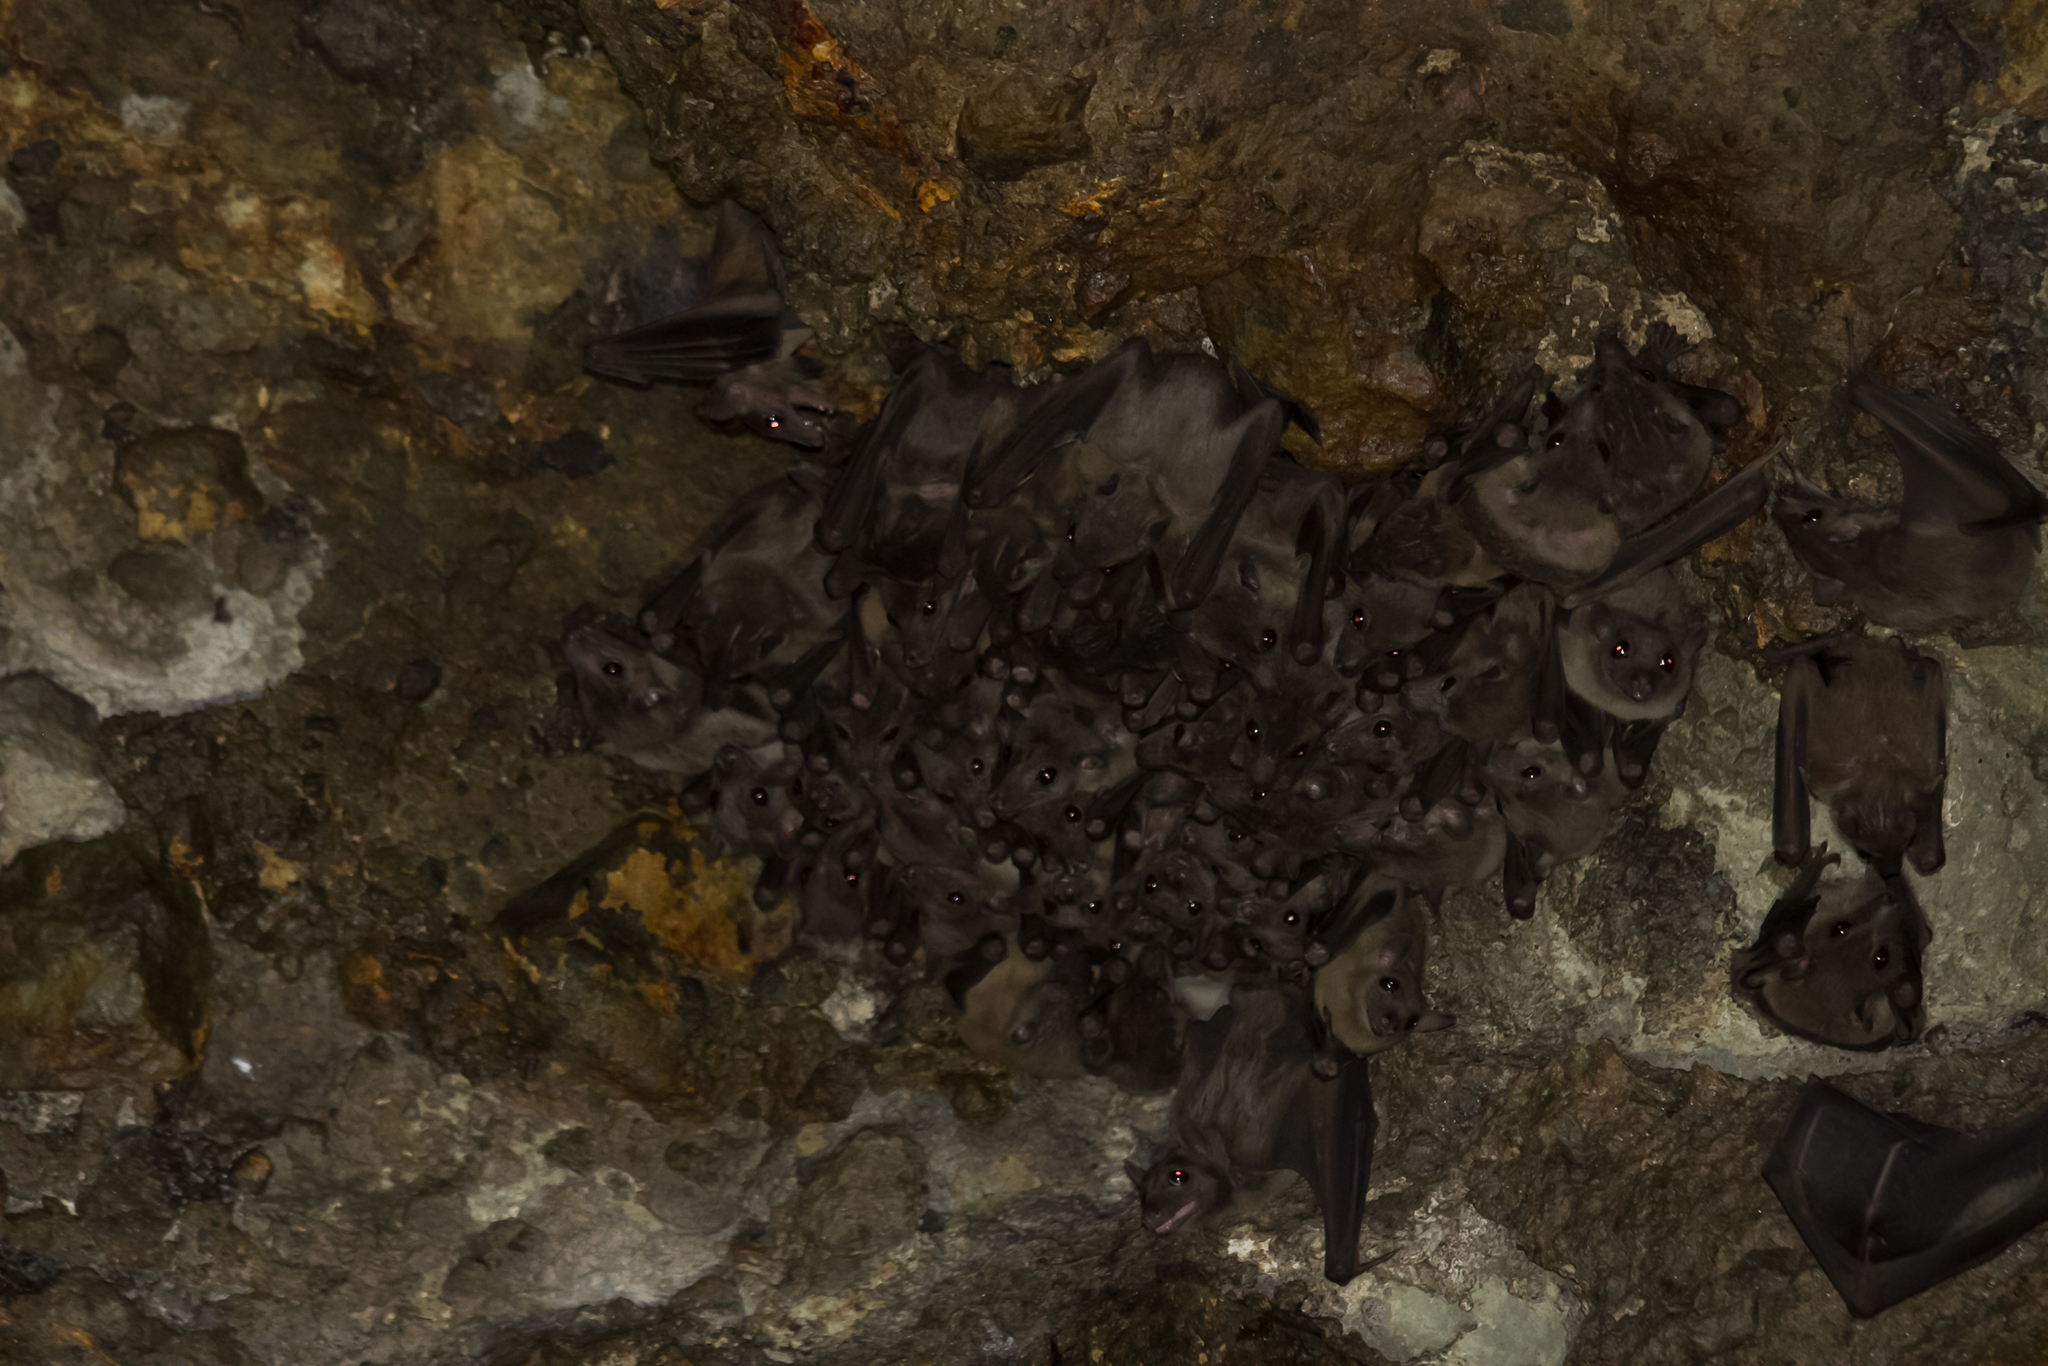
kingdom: Animalia
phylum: Chordata
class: Mammalia
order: Chiroptera
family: Pteropodidae
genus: Rousettus
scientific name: Rousettus aegyptiacus
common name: Egyptian rousette
